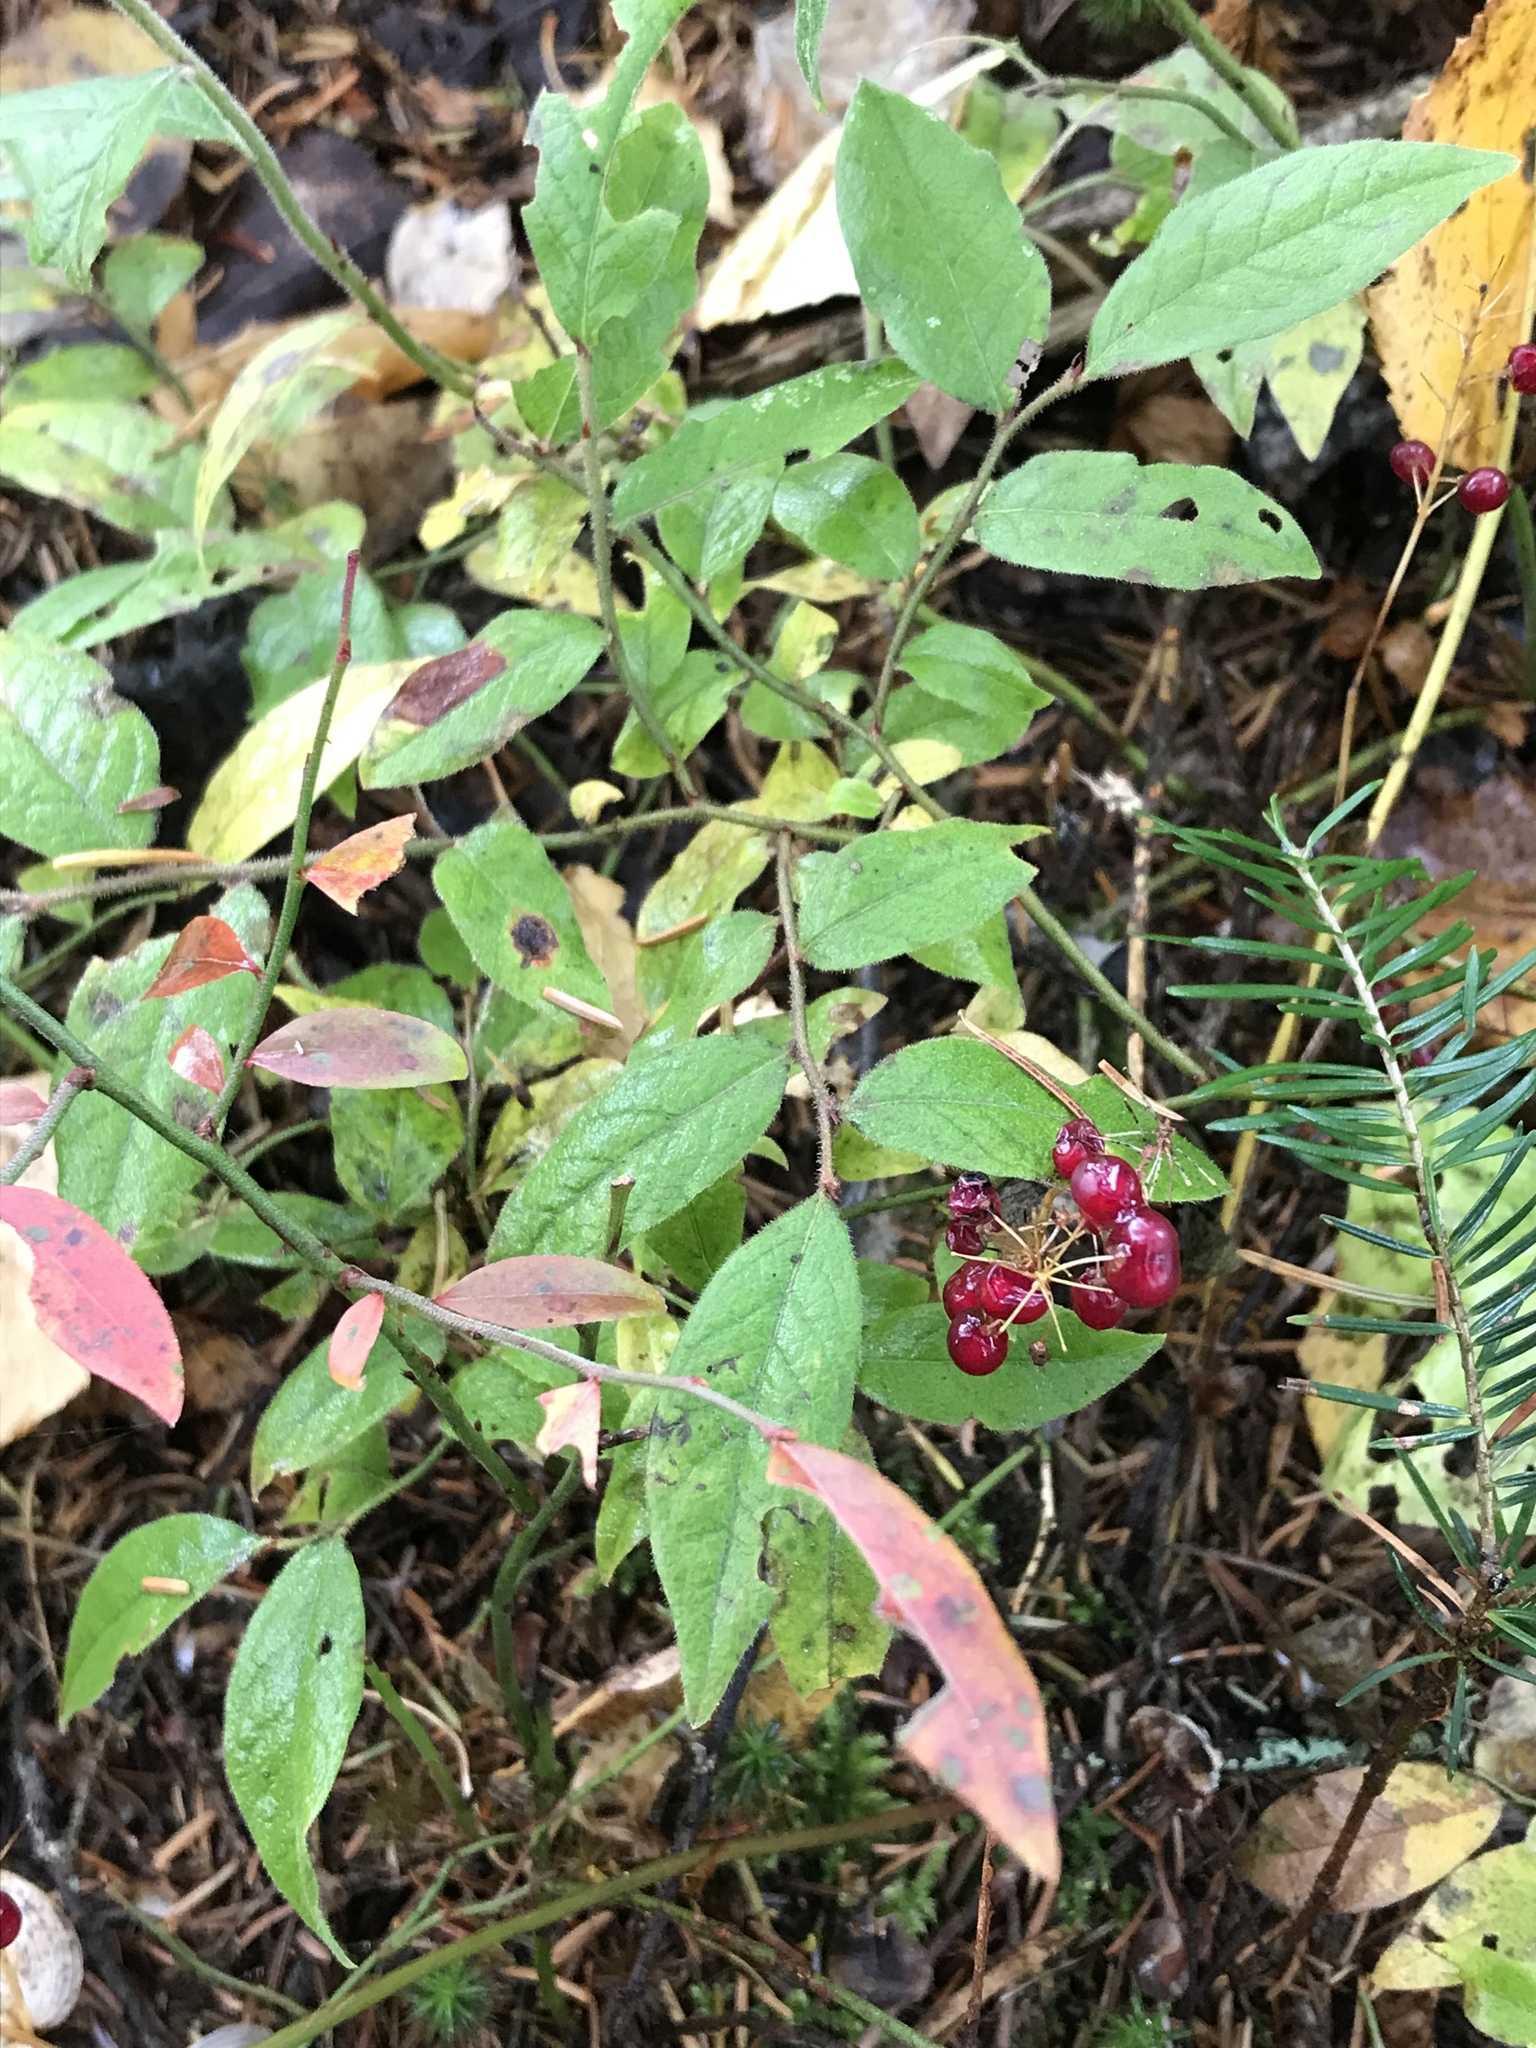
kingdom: Plantae
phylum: Tracheophyta
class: Magnoliopsida
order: Ericales
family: Ericaceae
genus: Vaccinium
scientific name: Vaccinium myrtilloides
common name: Canada blueberry
